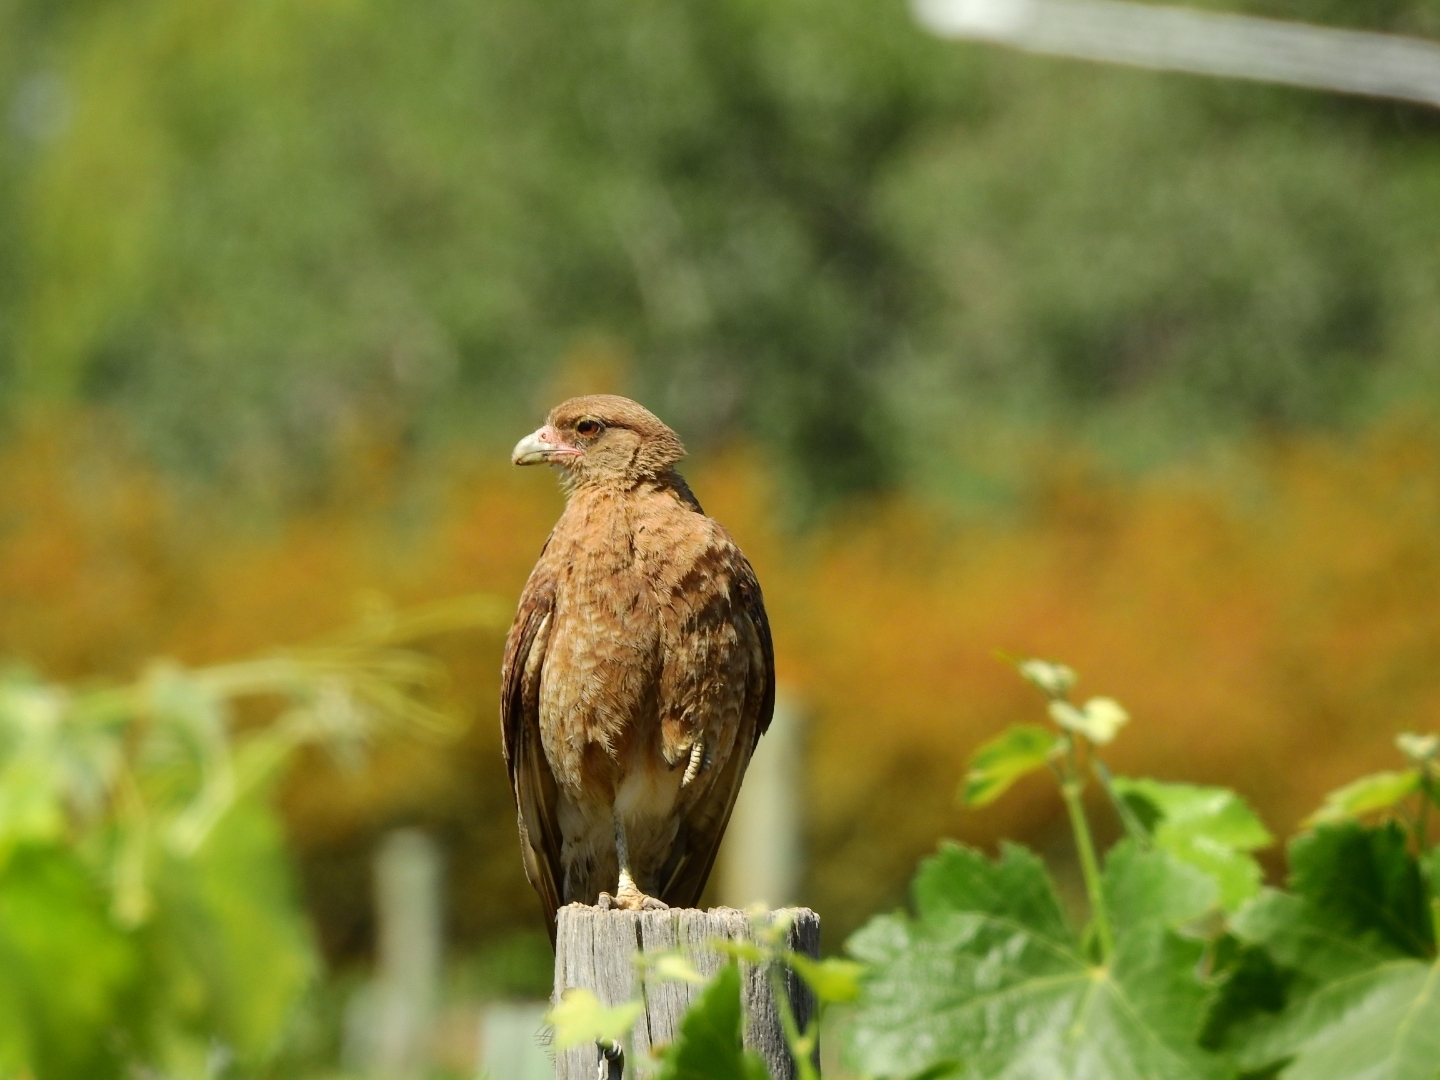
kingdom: Animalia
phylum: Chordata
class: Aves
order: Falconiformes
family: Falconidae
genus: Daptrius
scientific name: Daptrius
